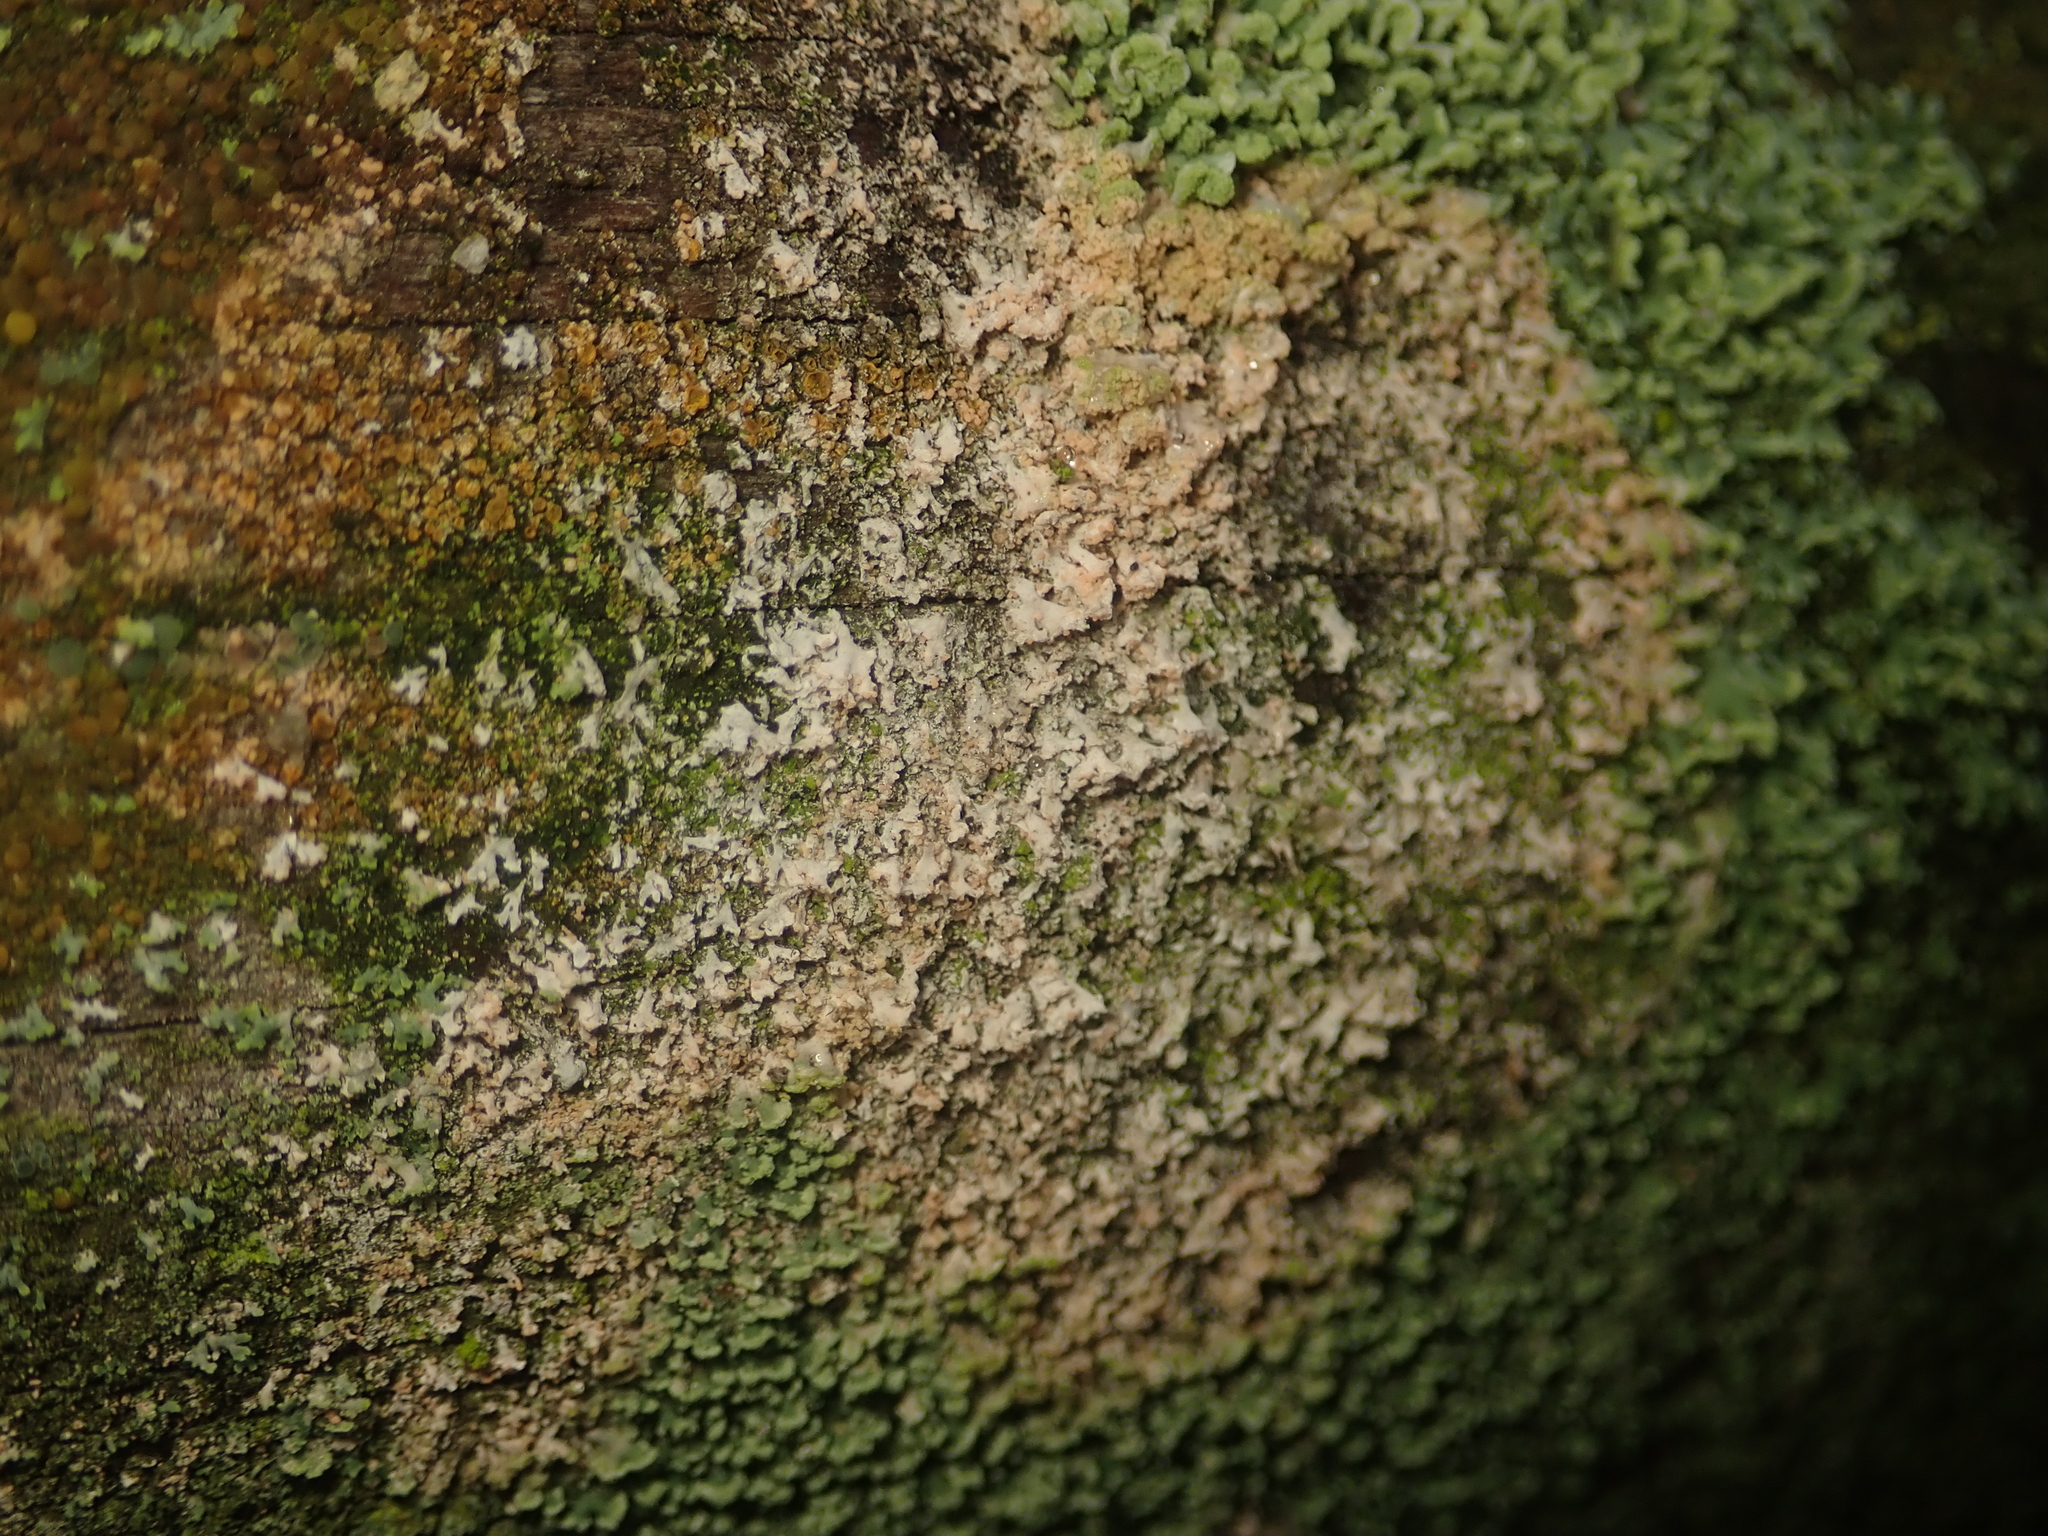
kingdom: Fungi
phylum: Basidiomycota
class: Agaricomycetes
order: Atheliales
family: Atheliaceae
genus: Athelia
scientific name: Athelia arachnoidea
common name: Candelabra duster
